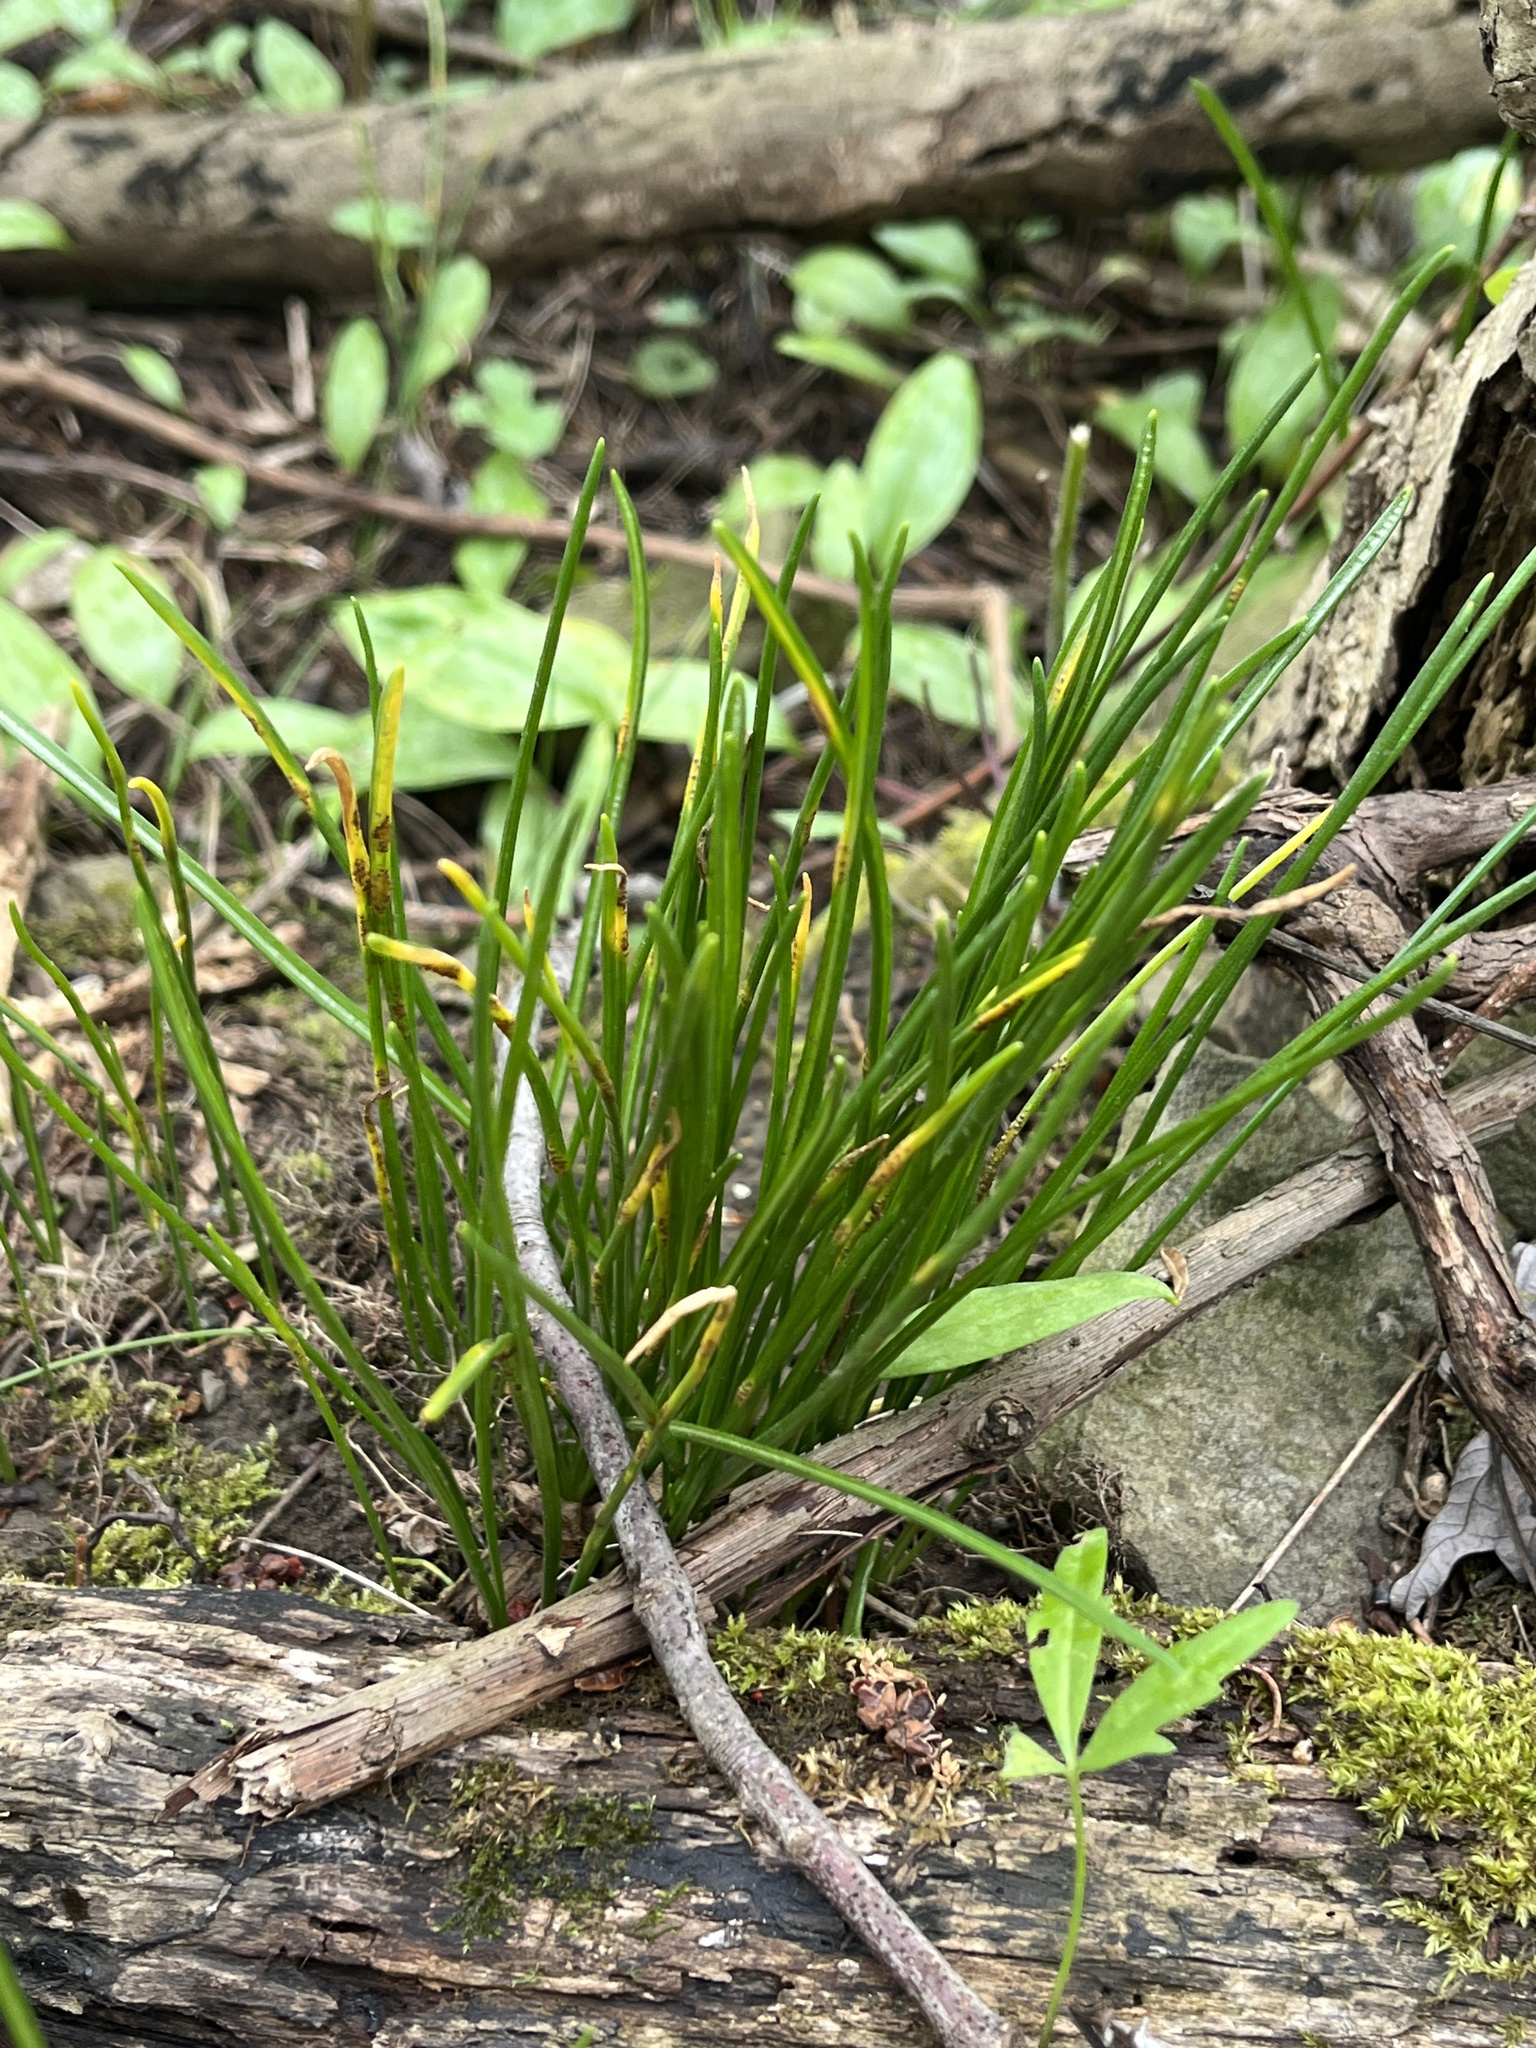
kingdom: Plantae
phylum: Tracheophyta
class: Liliopsida
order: Asparagales
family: Asparagaceae
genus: Ornithogalum
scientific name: Ornithogalum umbellatum
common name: Garden star-of-bethlehem
